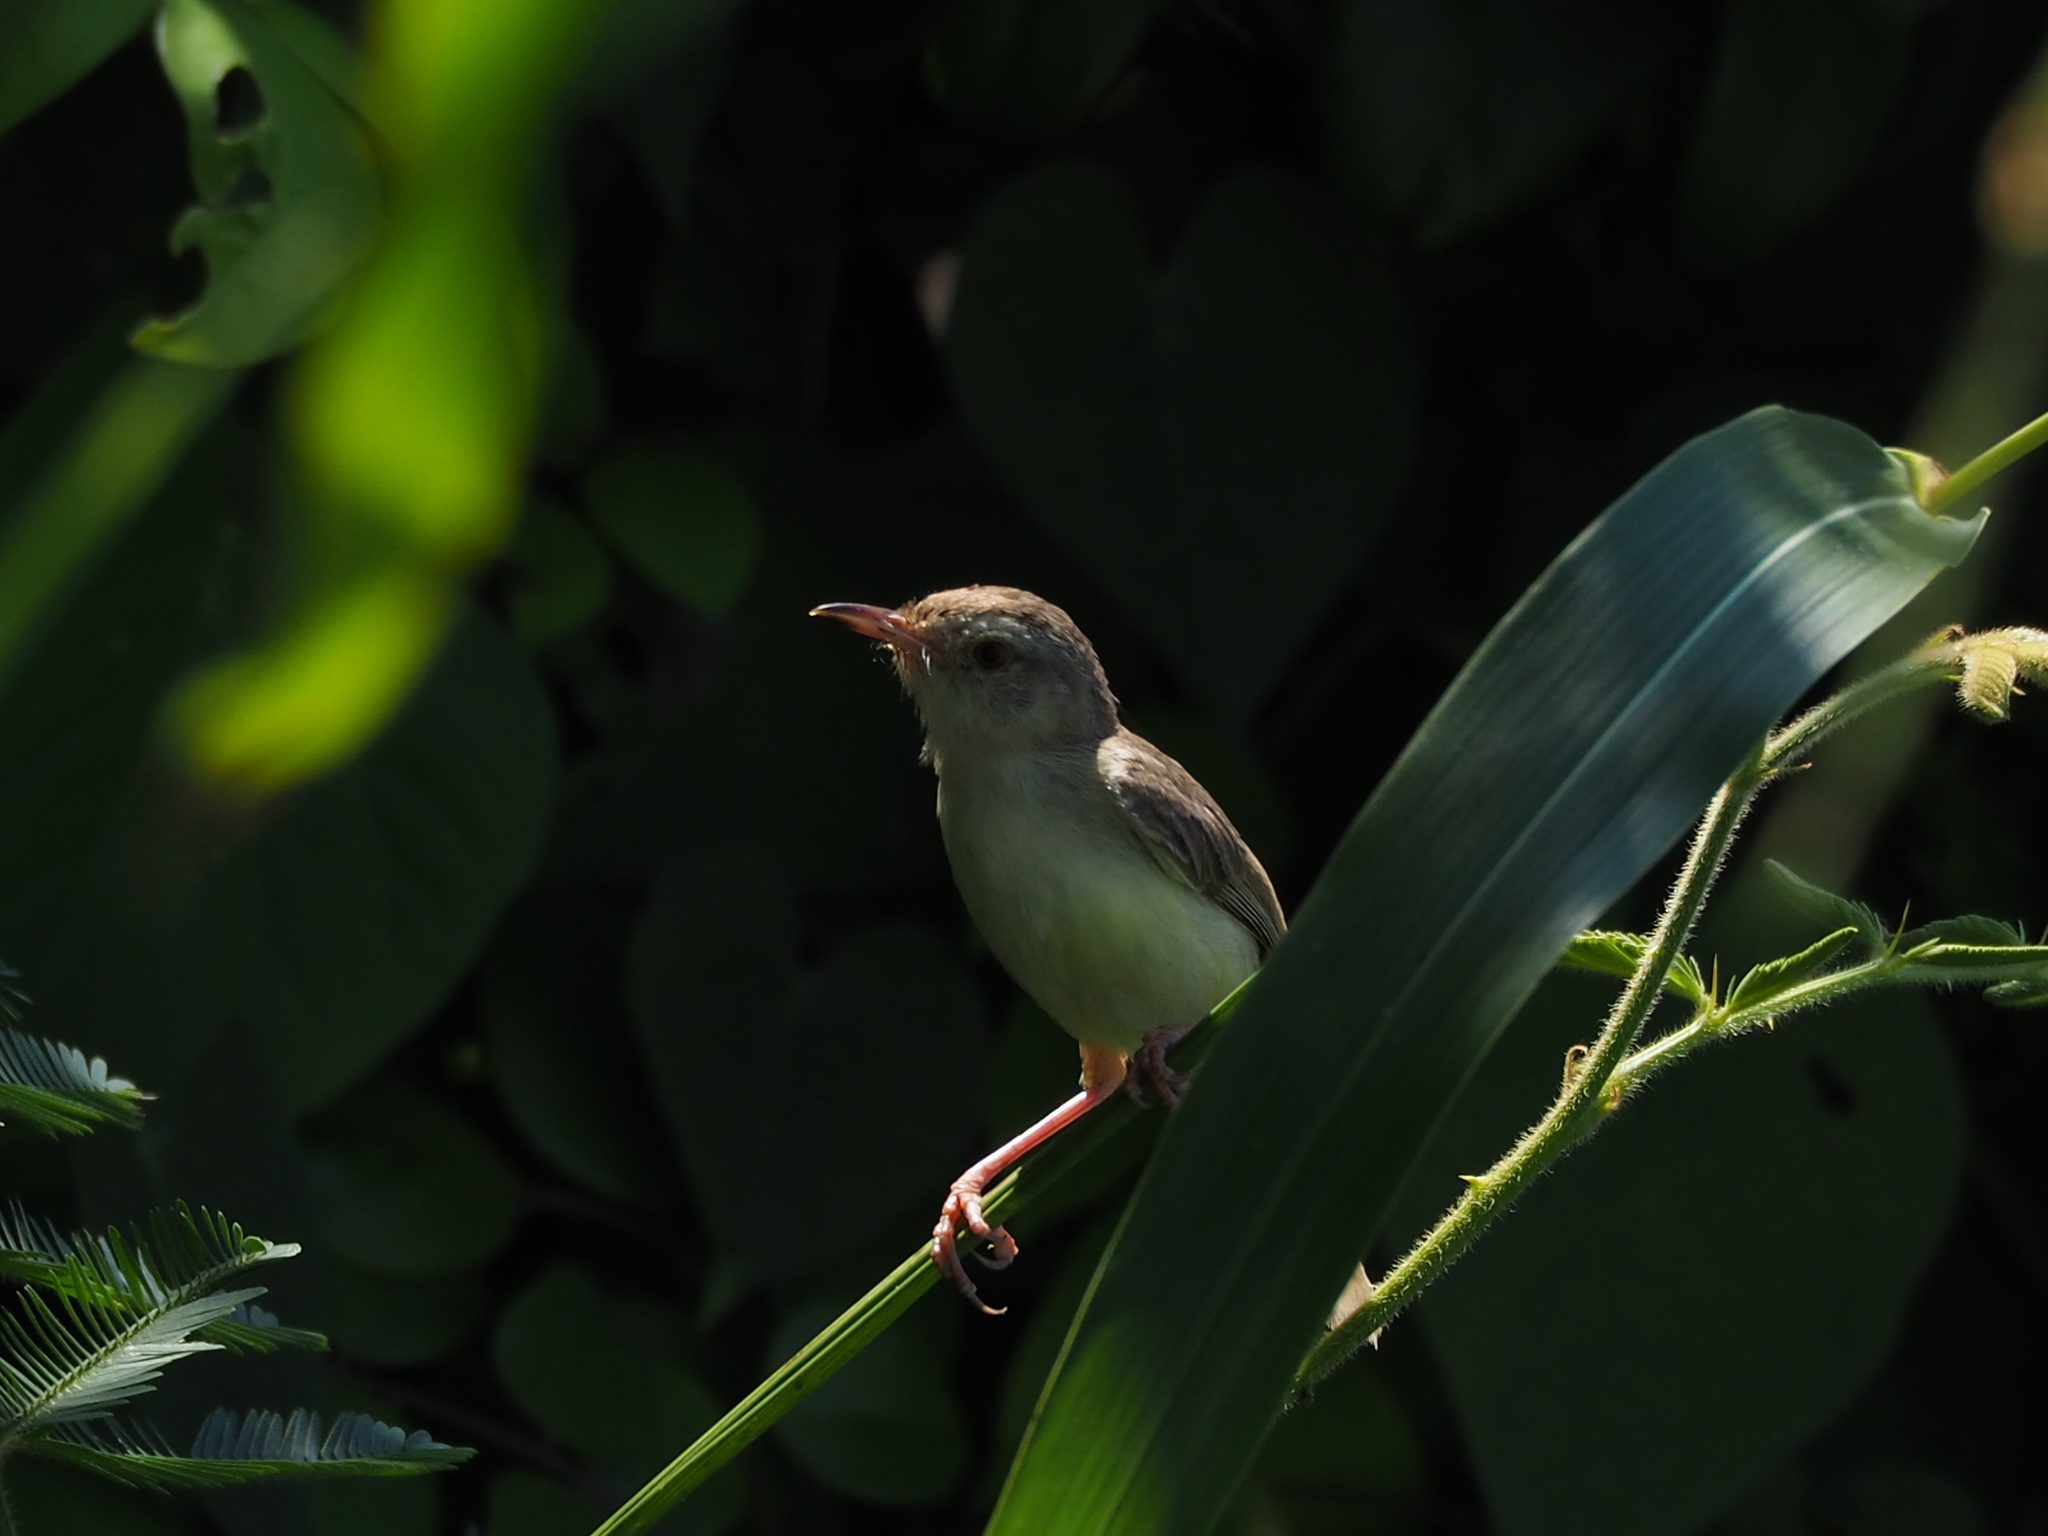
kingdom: Animalia
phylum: Chordata
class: Aves
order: Passeriformes
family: Cisticolidae
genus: Prinia
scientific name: Prinia inornata
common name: Plain prinia
